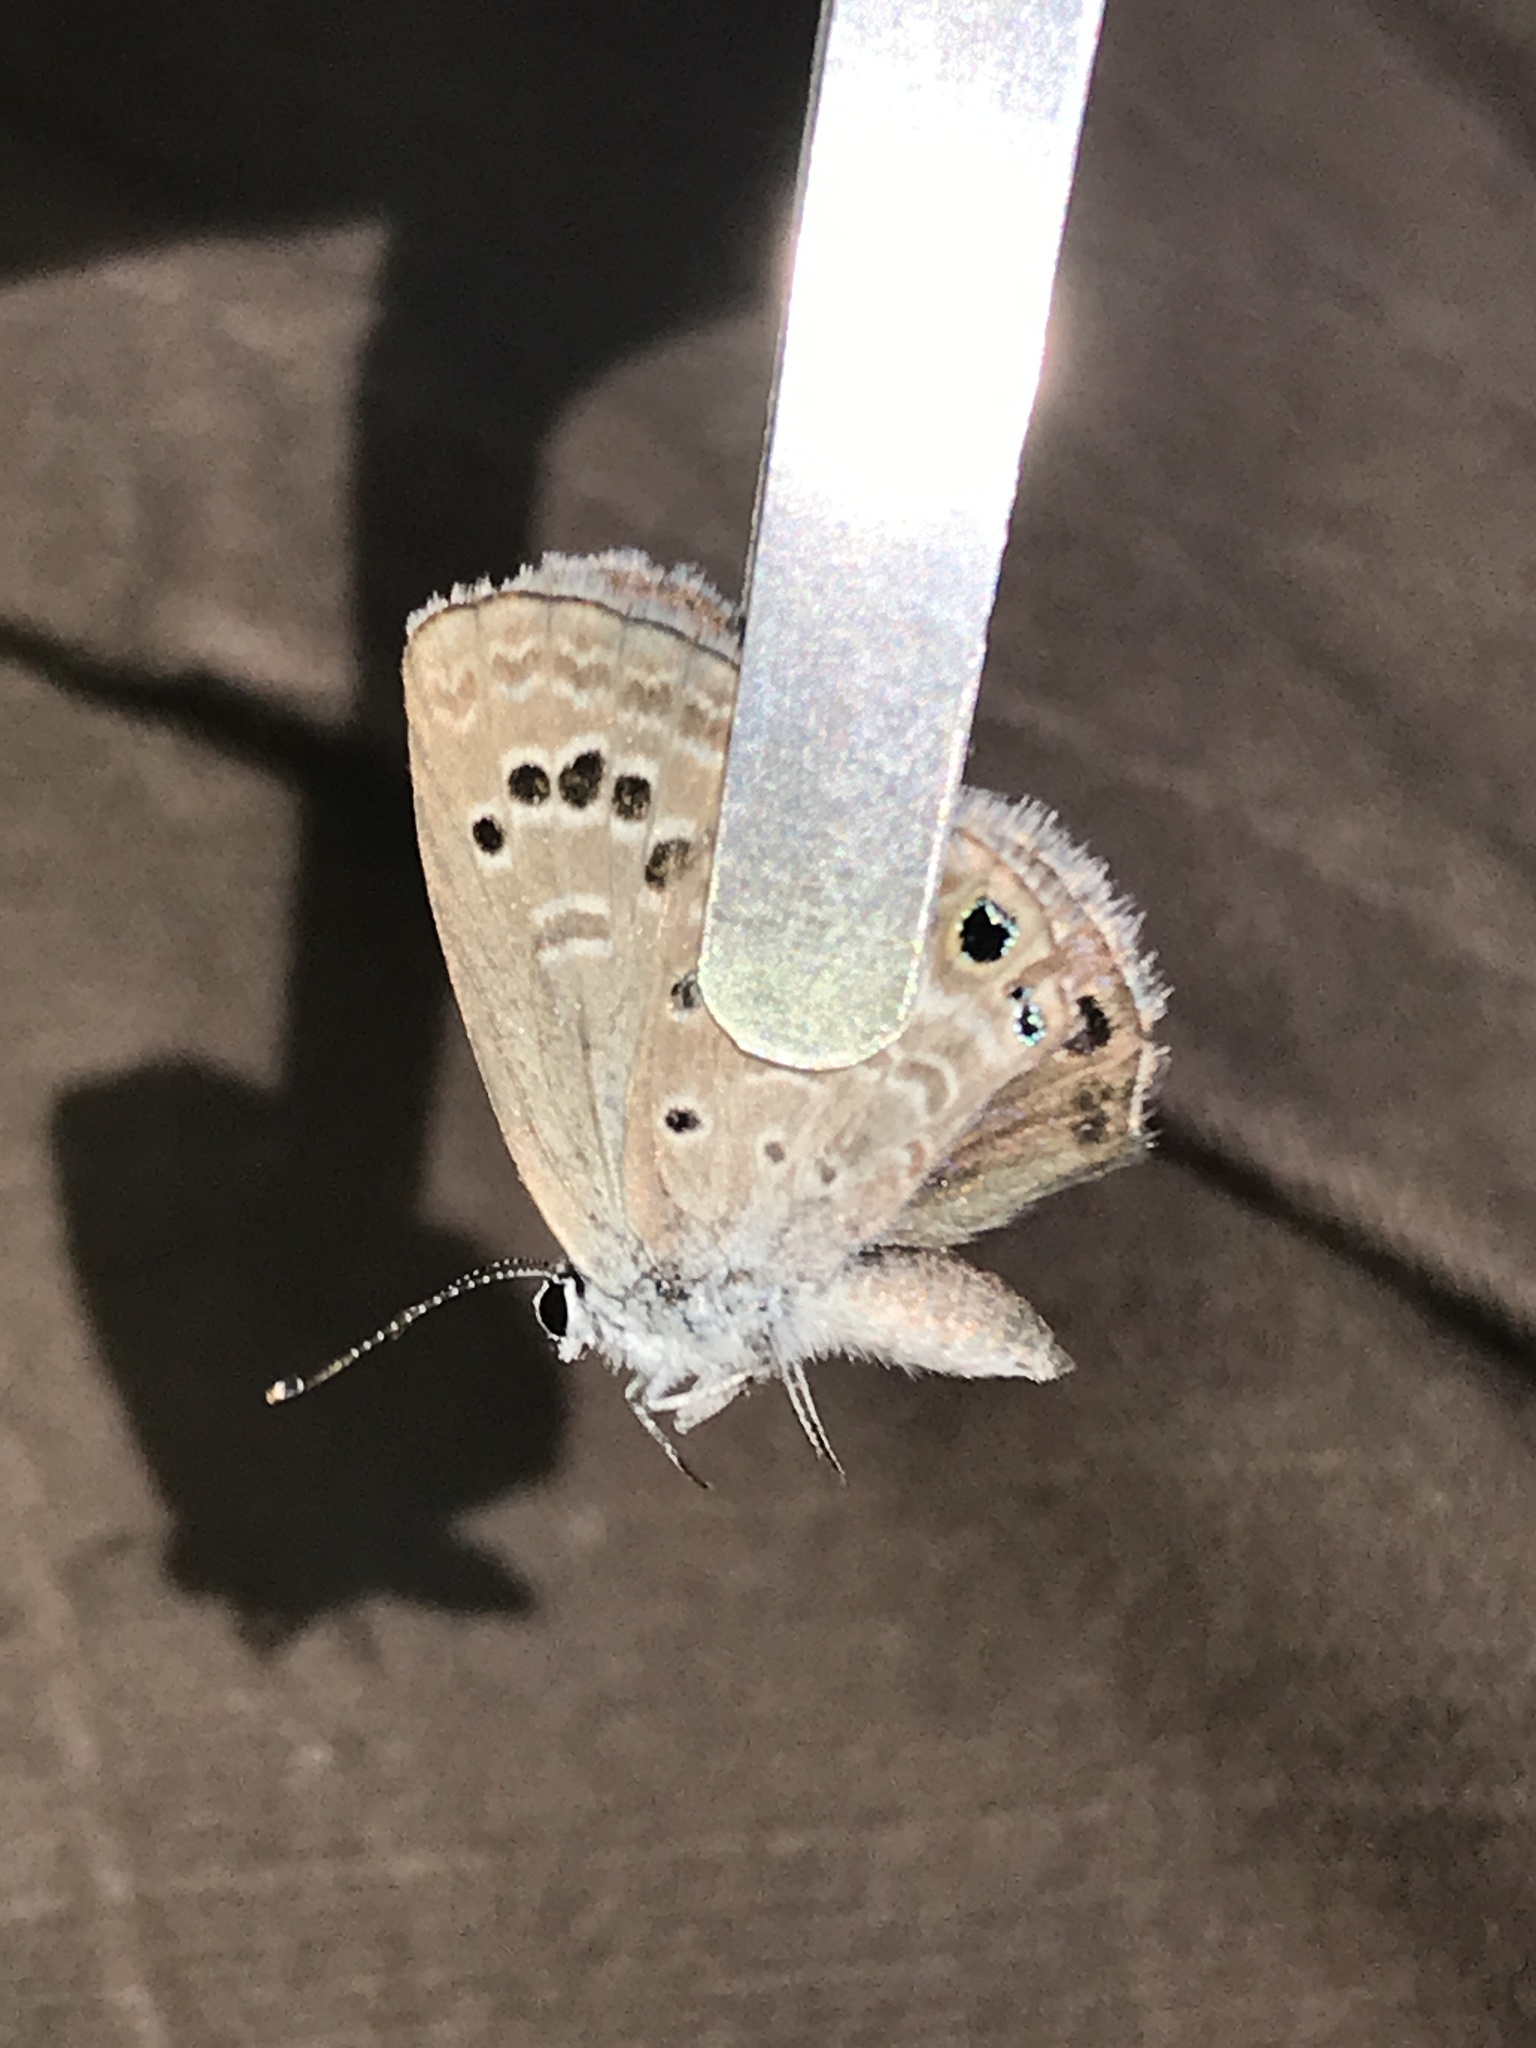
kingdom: Animalia
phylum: Arthropoda
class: Insecta
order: Lepidoptera
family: Lycaenidae
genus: Echinargus
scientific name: Echinargus isola
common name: Reakirt's blue
